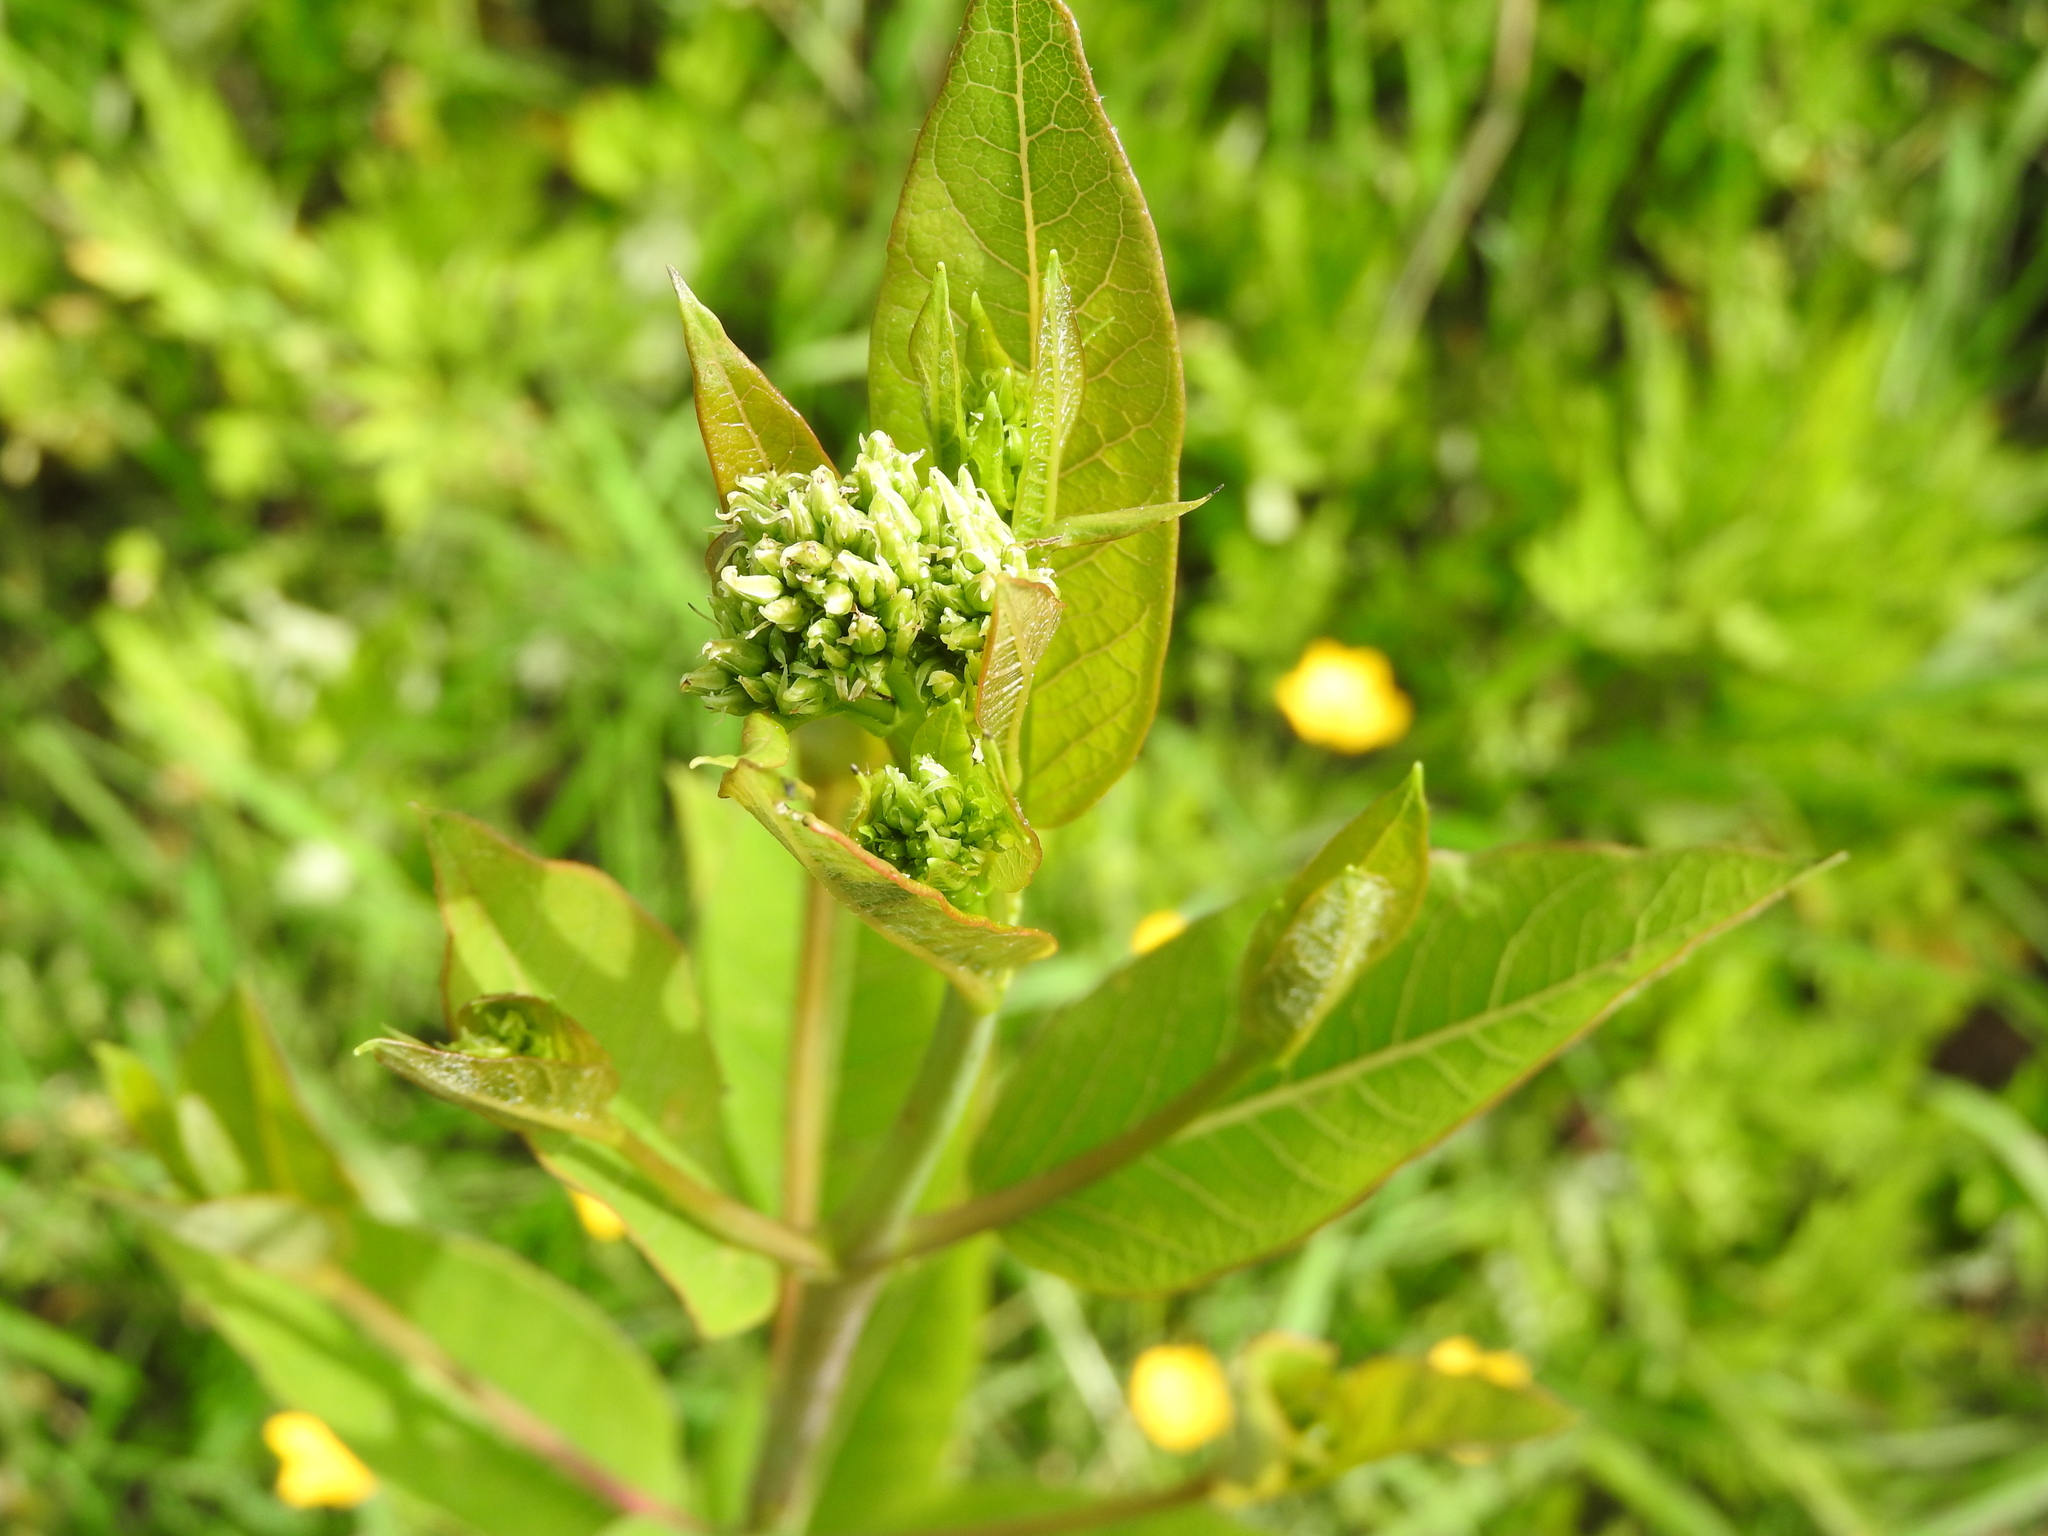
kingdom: Plantae
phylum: Tracheophyta
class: Magnoliopsida
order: Gentianales
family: Apocynaceae
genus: Apocynum
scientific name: Apocynum cannabinum
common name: Hemp dogbane
